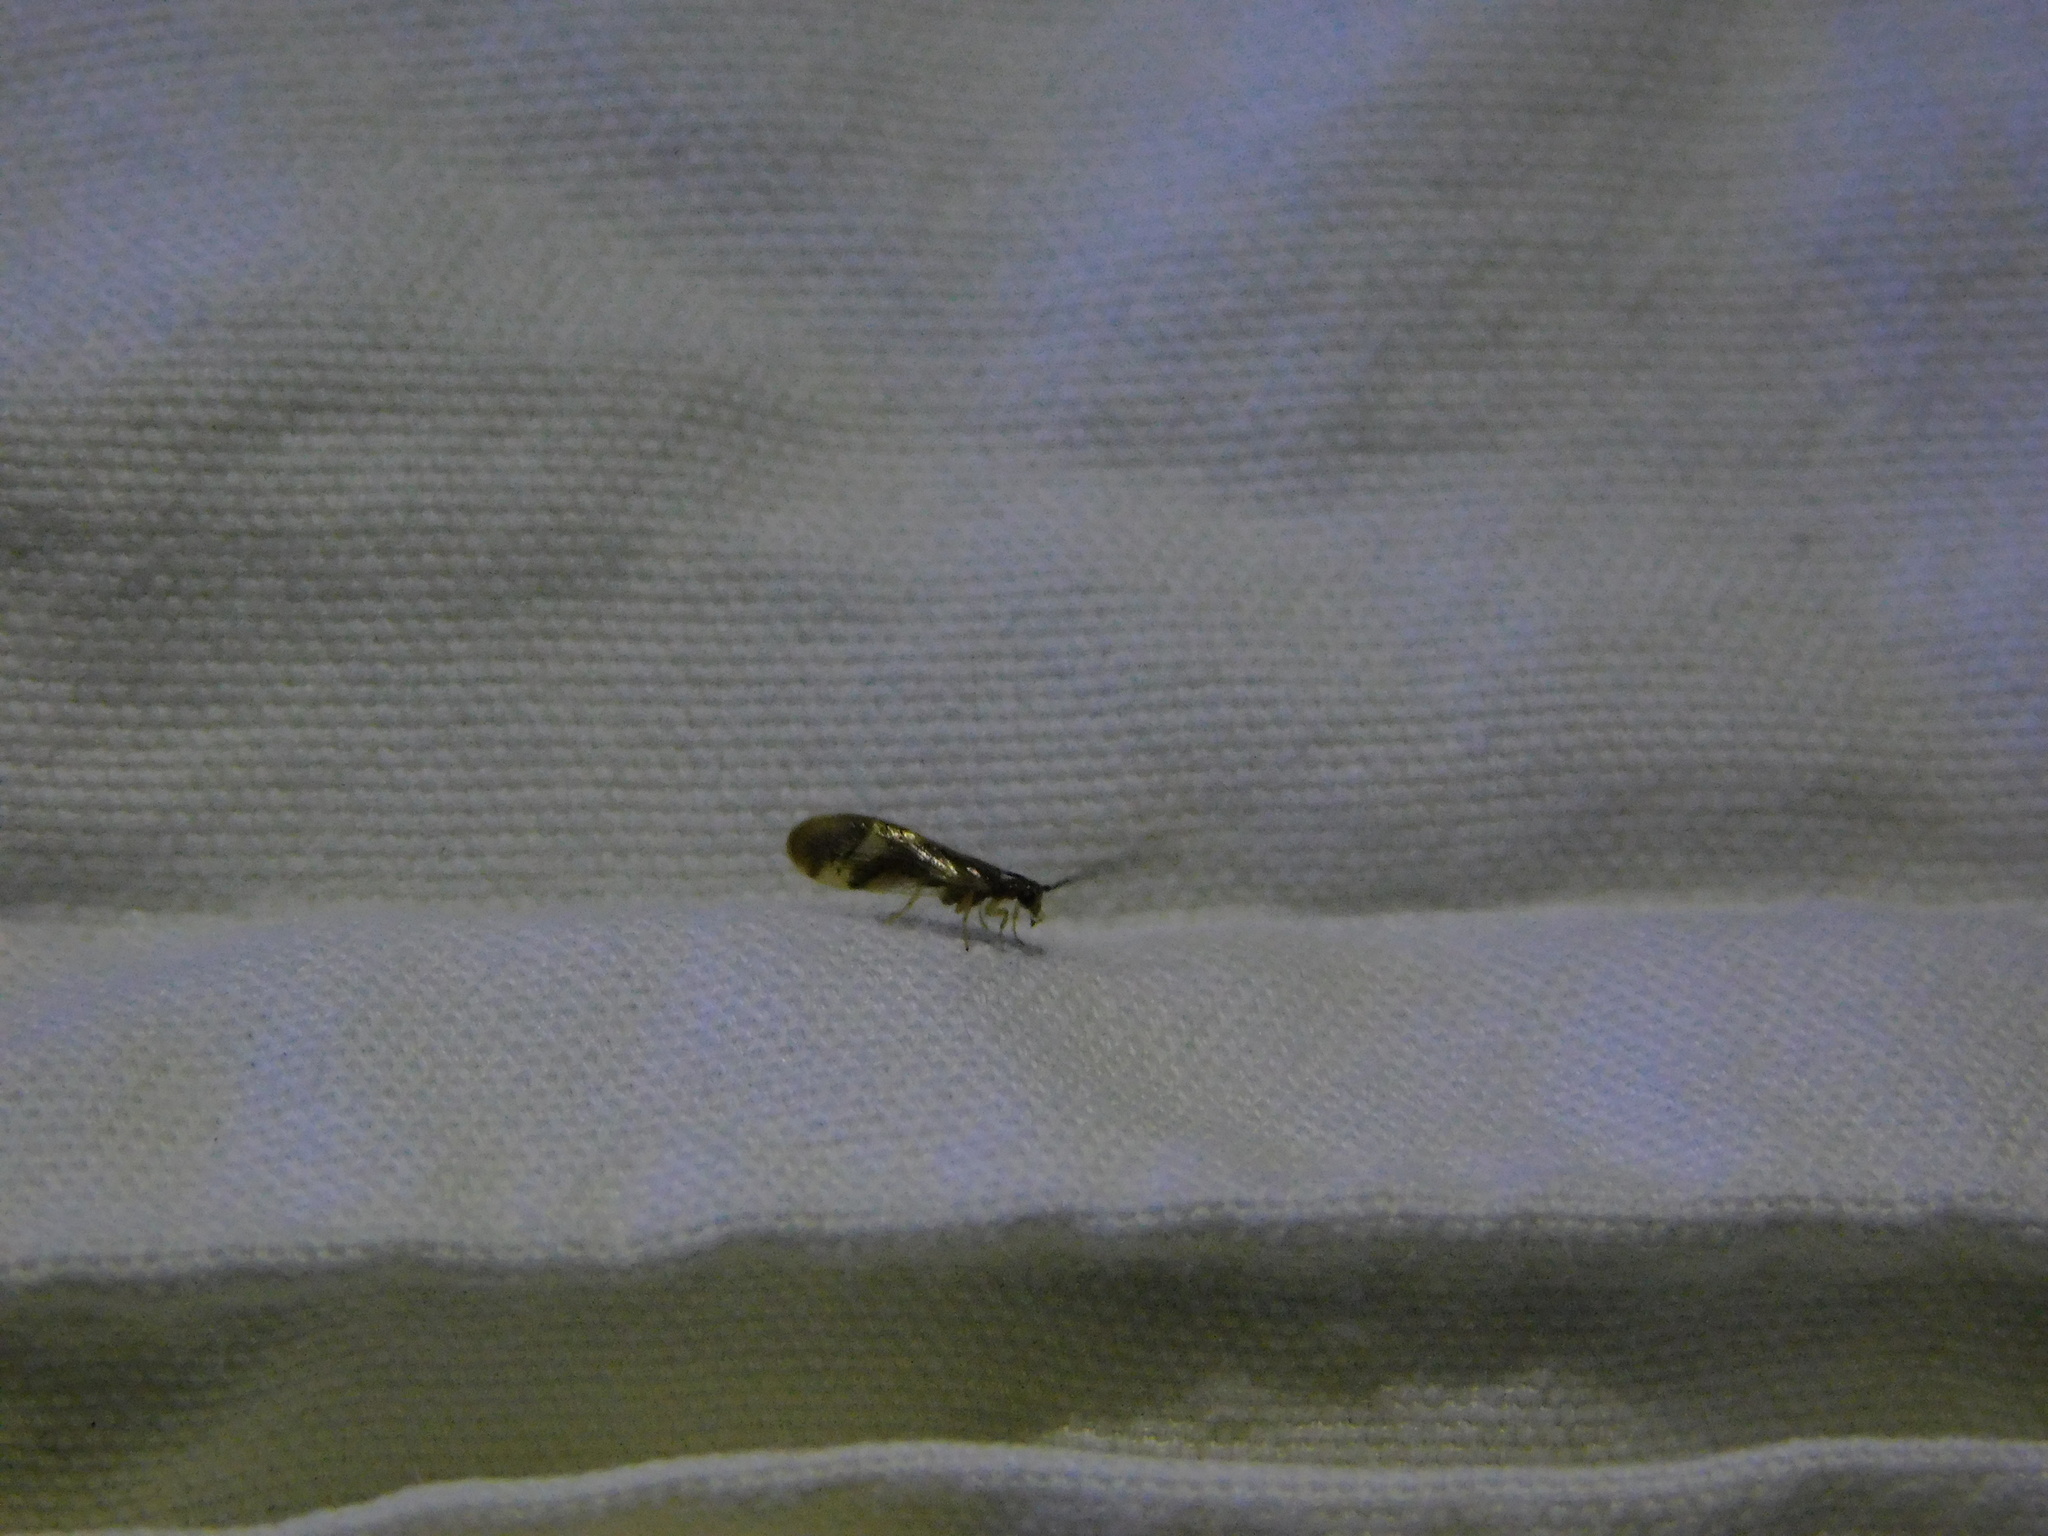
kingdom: Animalia
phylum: Arthropoda
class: Insecta
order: Neuroptera
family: Sisyridae
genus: Climacia
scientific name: Climacia areolaris
